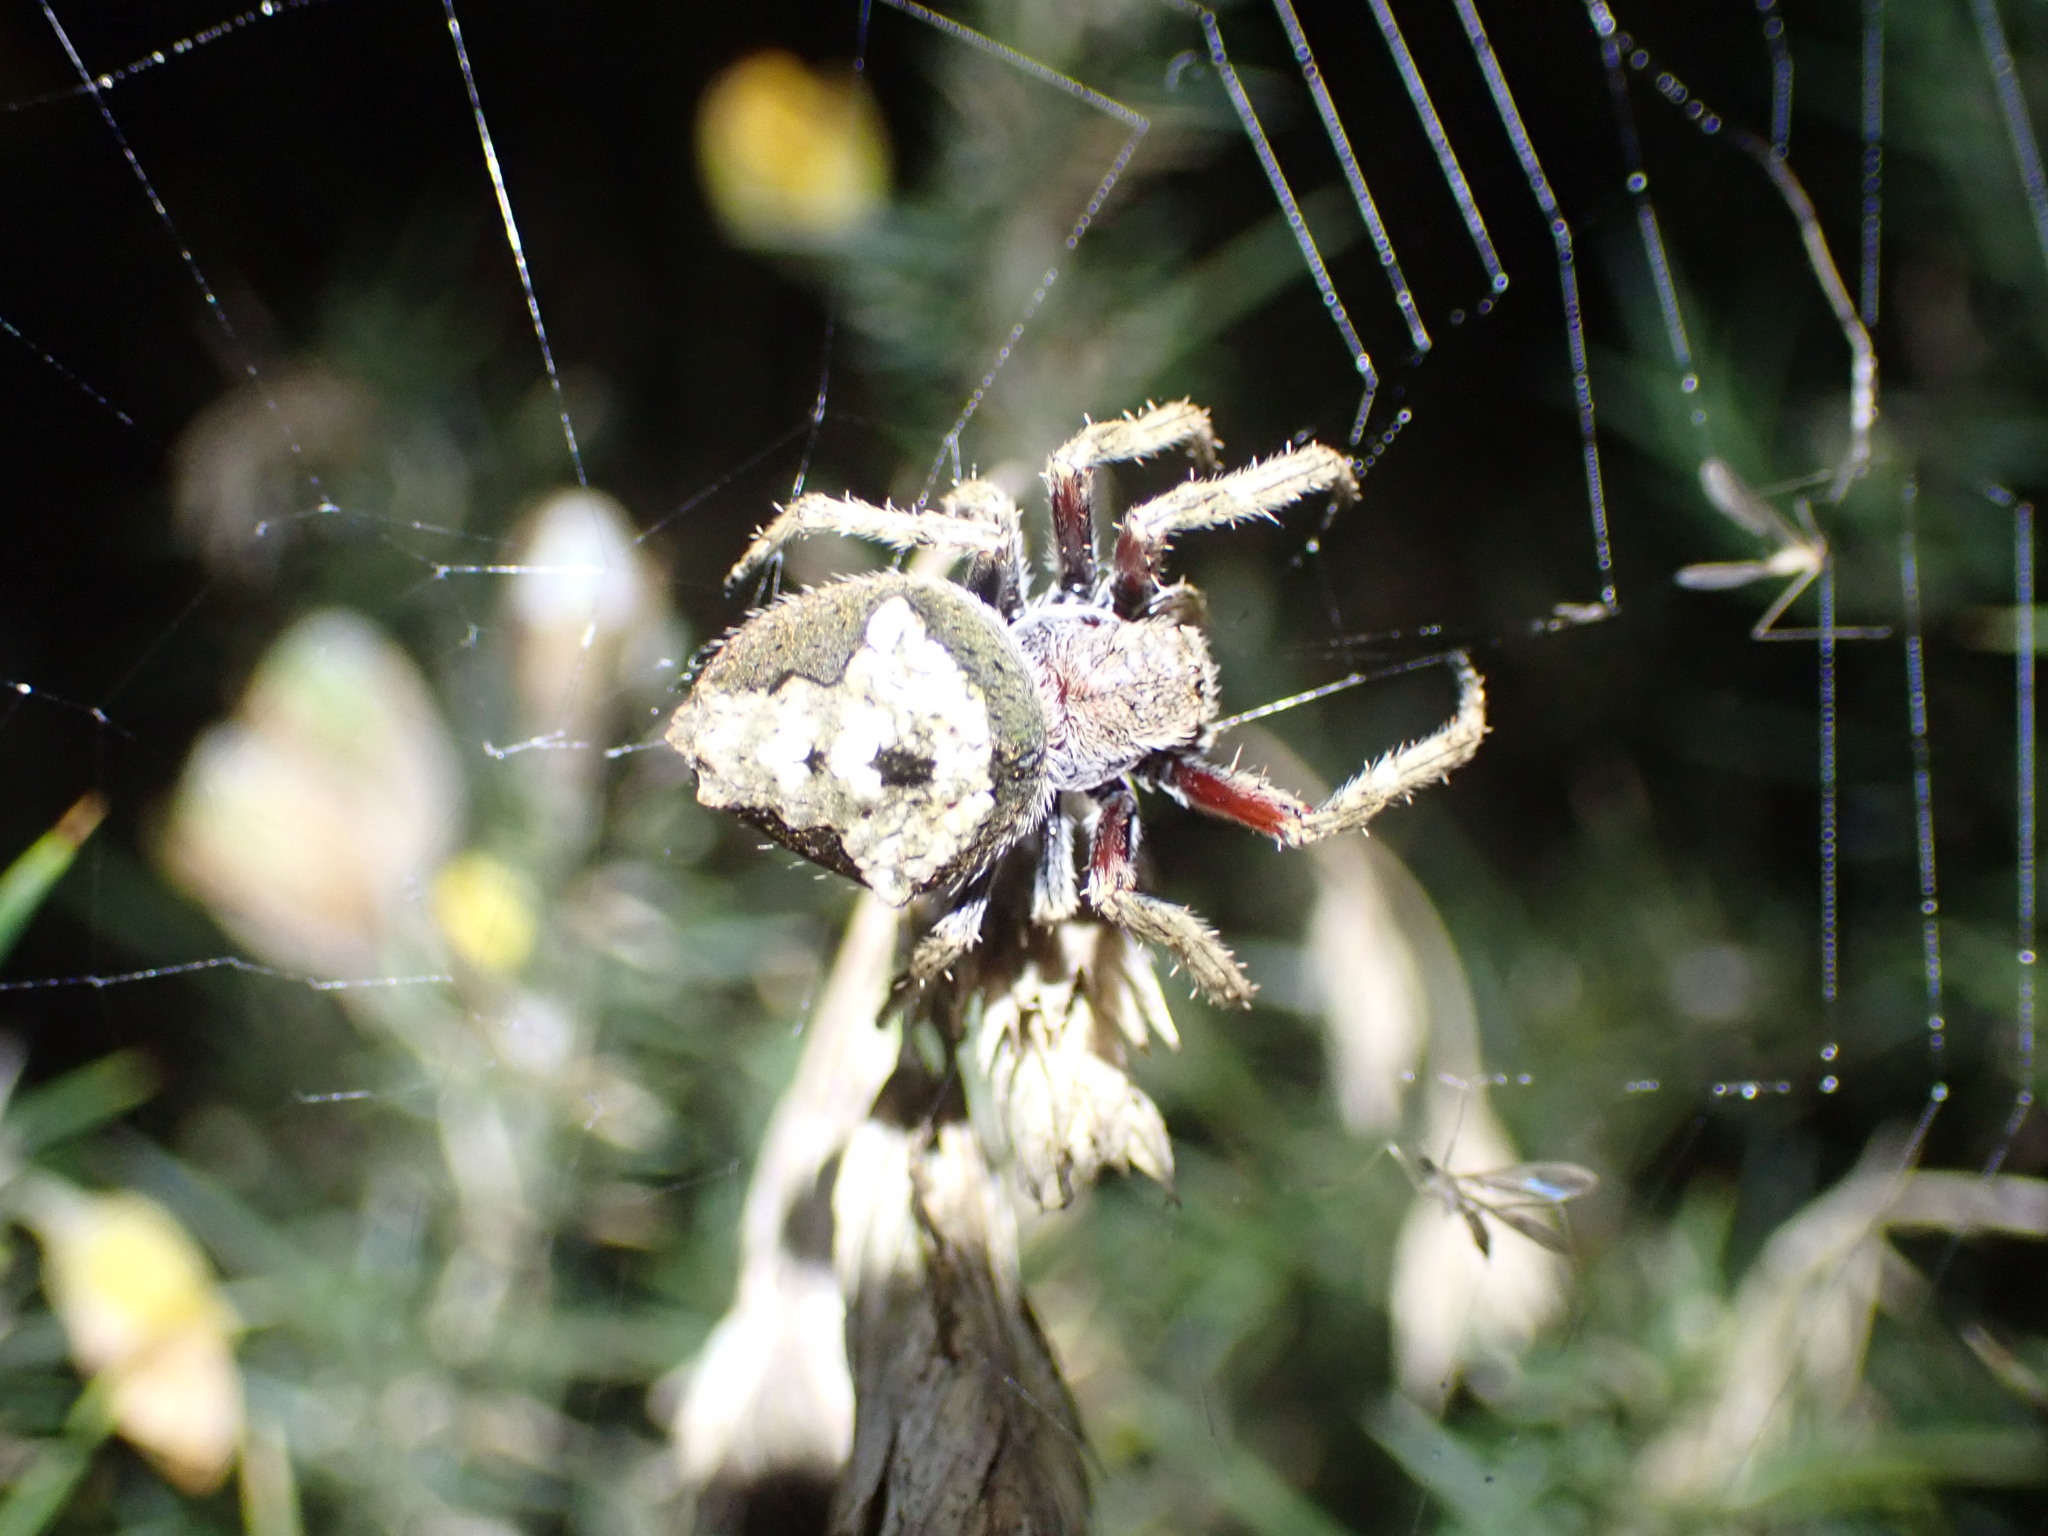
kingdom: Animalia
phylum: Arthropoda
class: Arachnida
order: Araneae
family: Araneidae
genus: Eriophora
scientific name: Eriophora pustulosa
